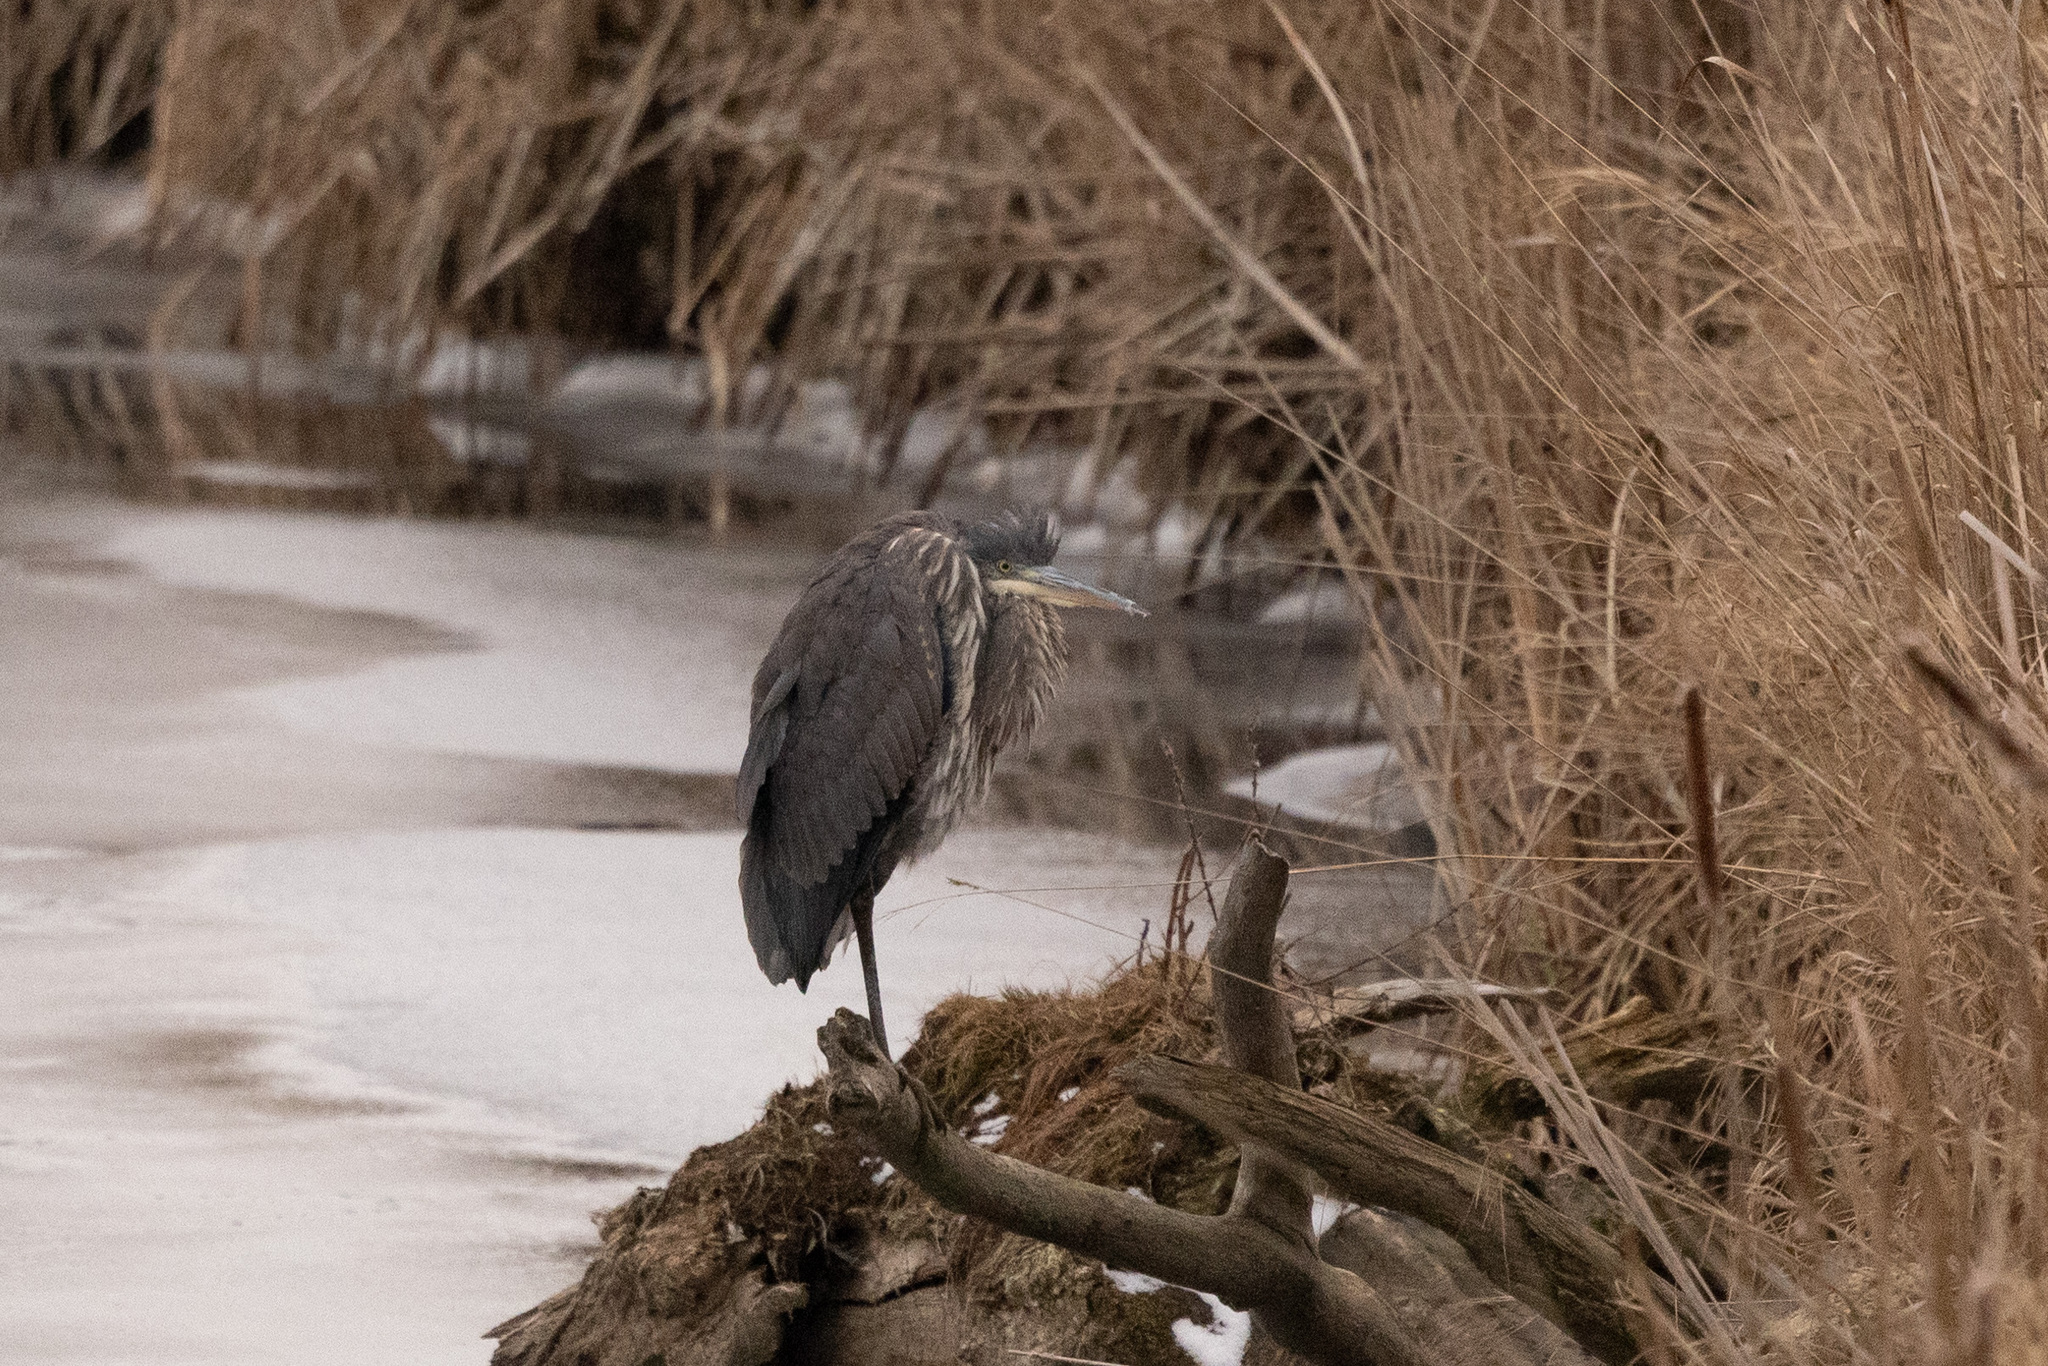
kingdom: Animalia
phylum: Chordata
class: Aves
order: Pelecaniformes
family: Ardeidae
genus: Ardea
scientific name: Ardea herodias
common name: Great blue heron
